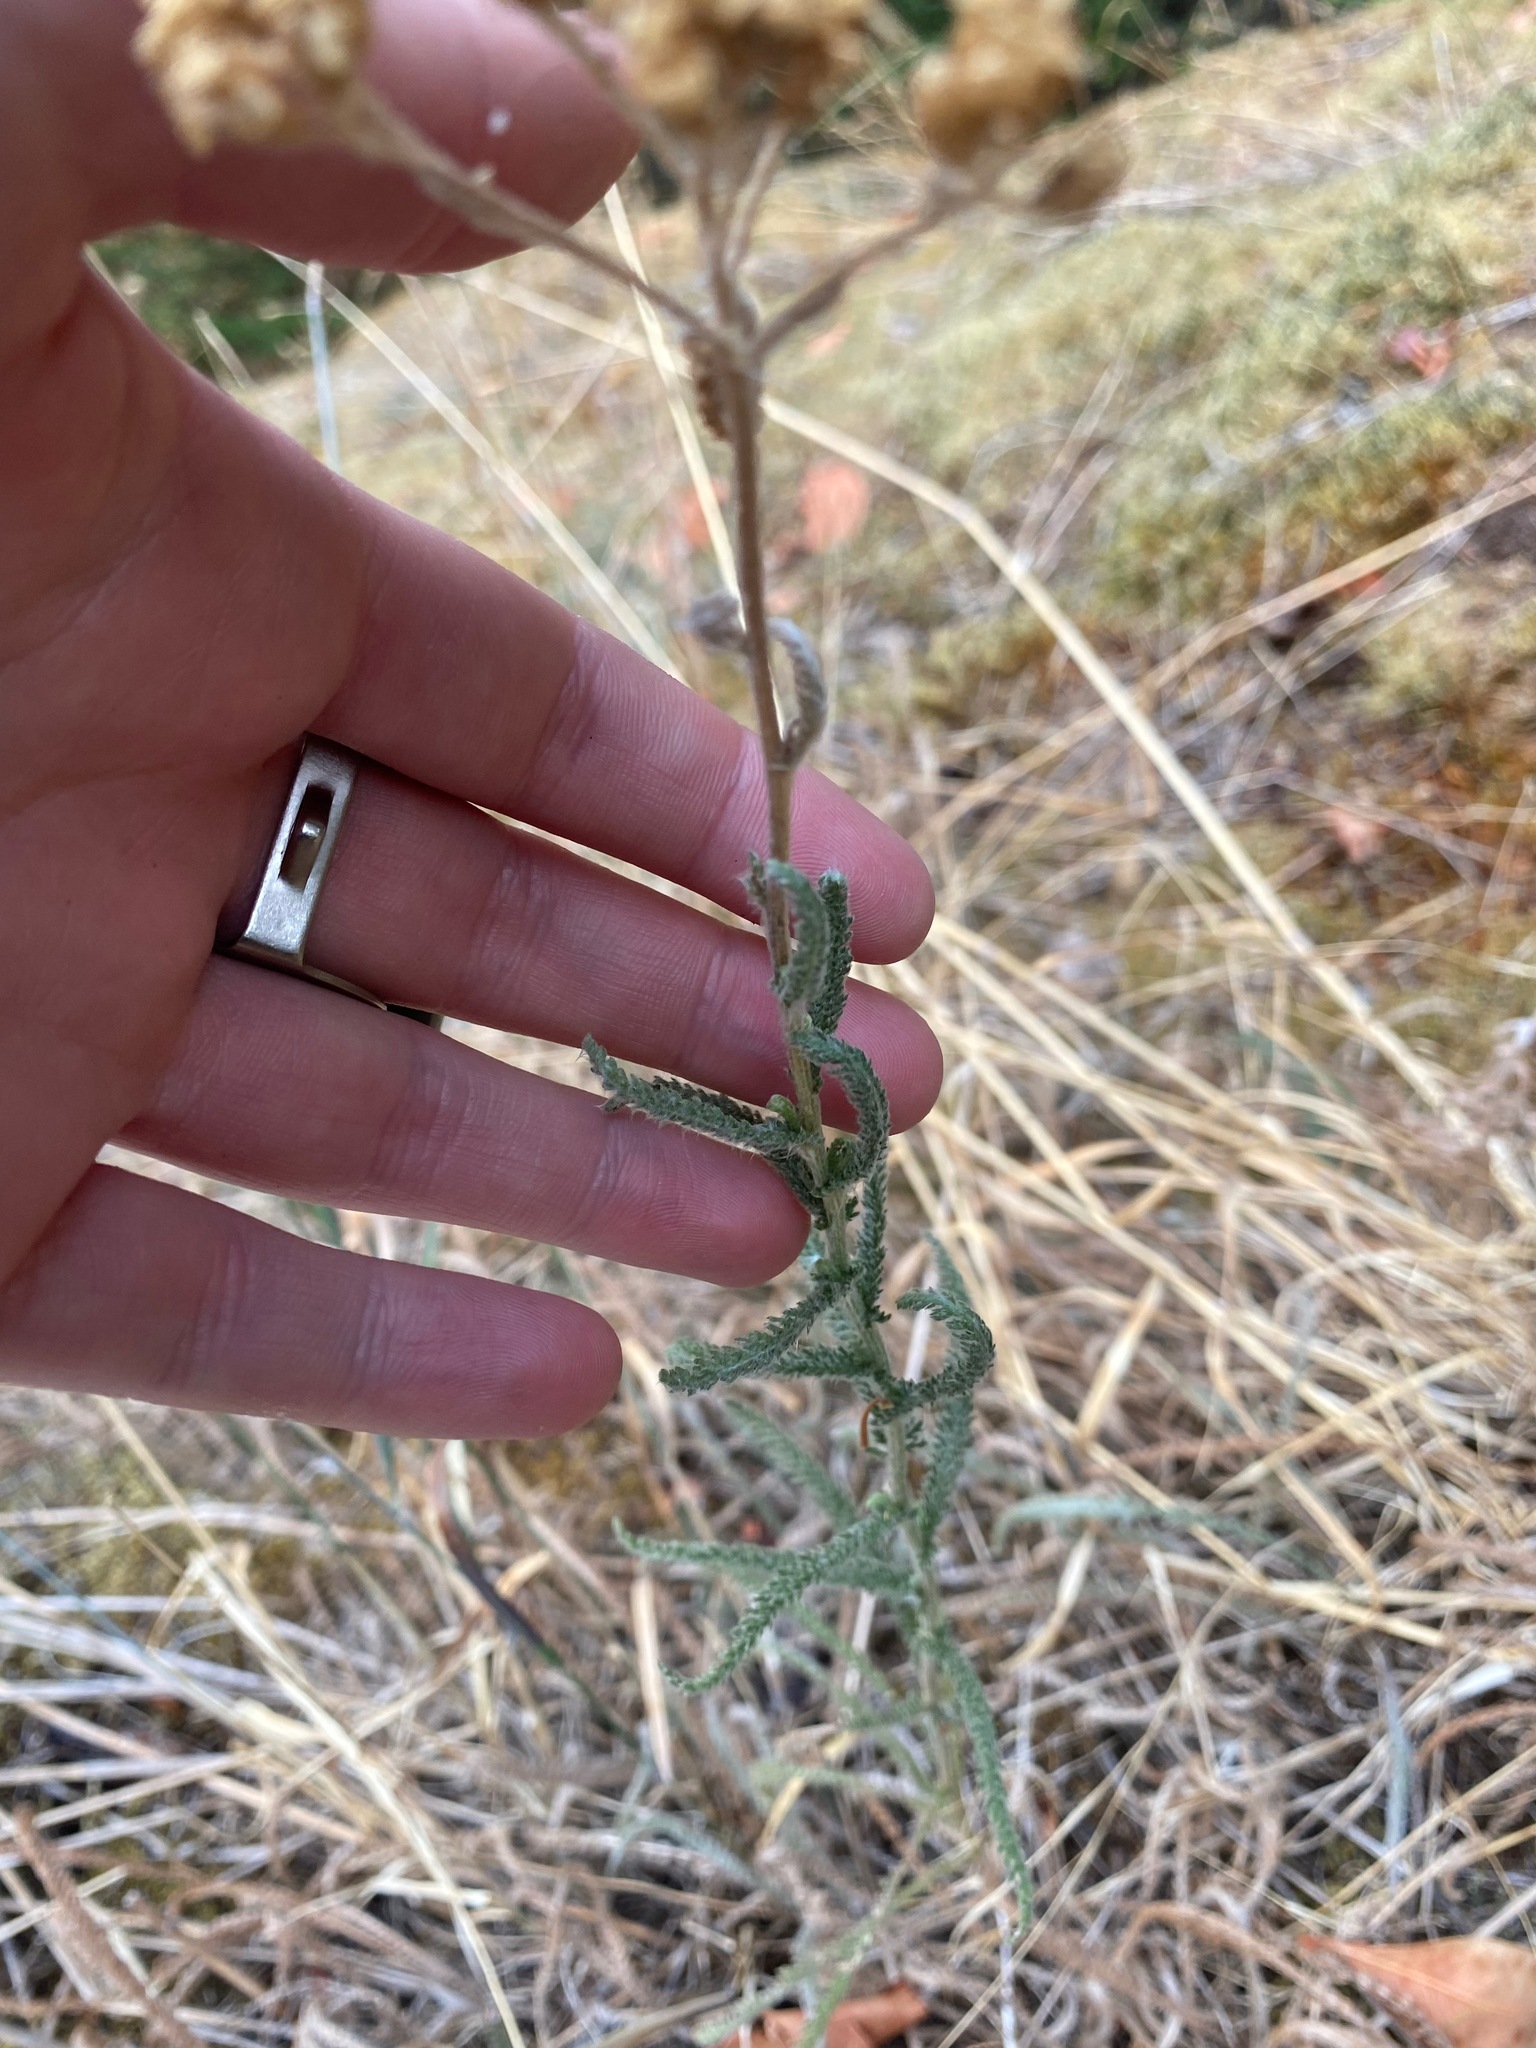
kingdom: Plantae
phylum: Tracheophyta
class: Magnoliopsida
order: Asterales
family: Asteraceae
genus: Achillea
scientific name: Achillea millefolium
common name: Yarrow
